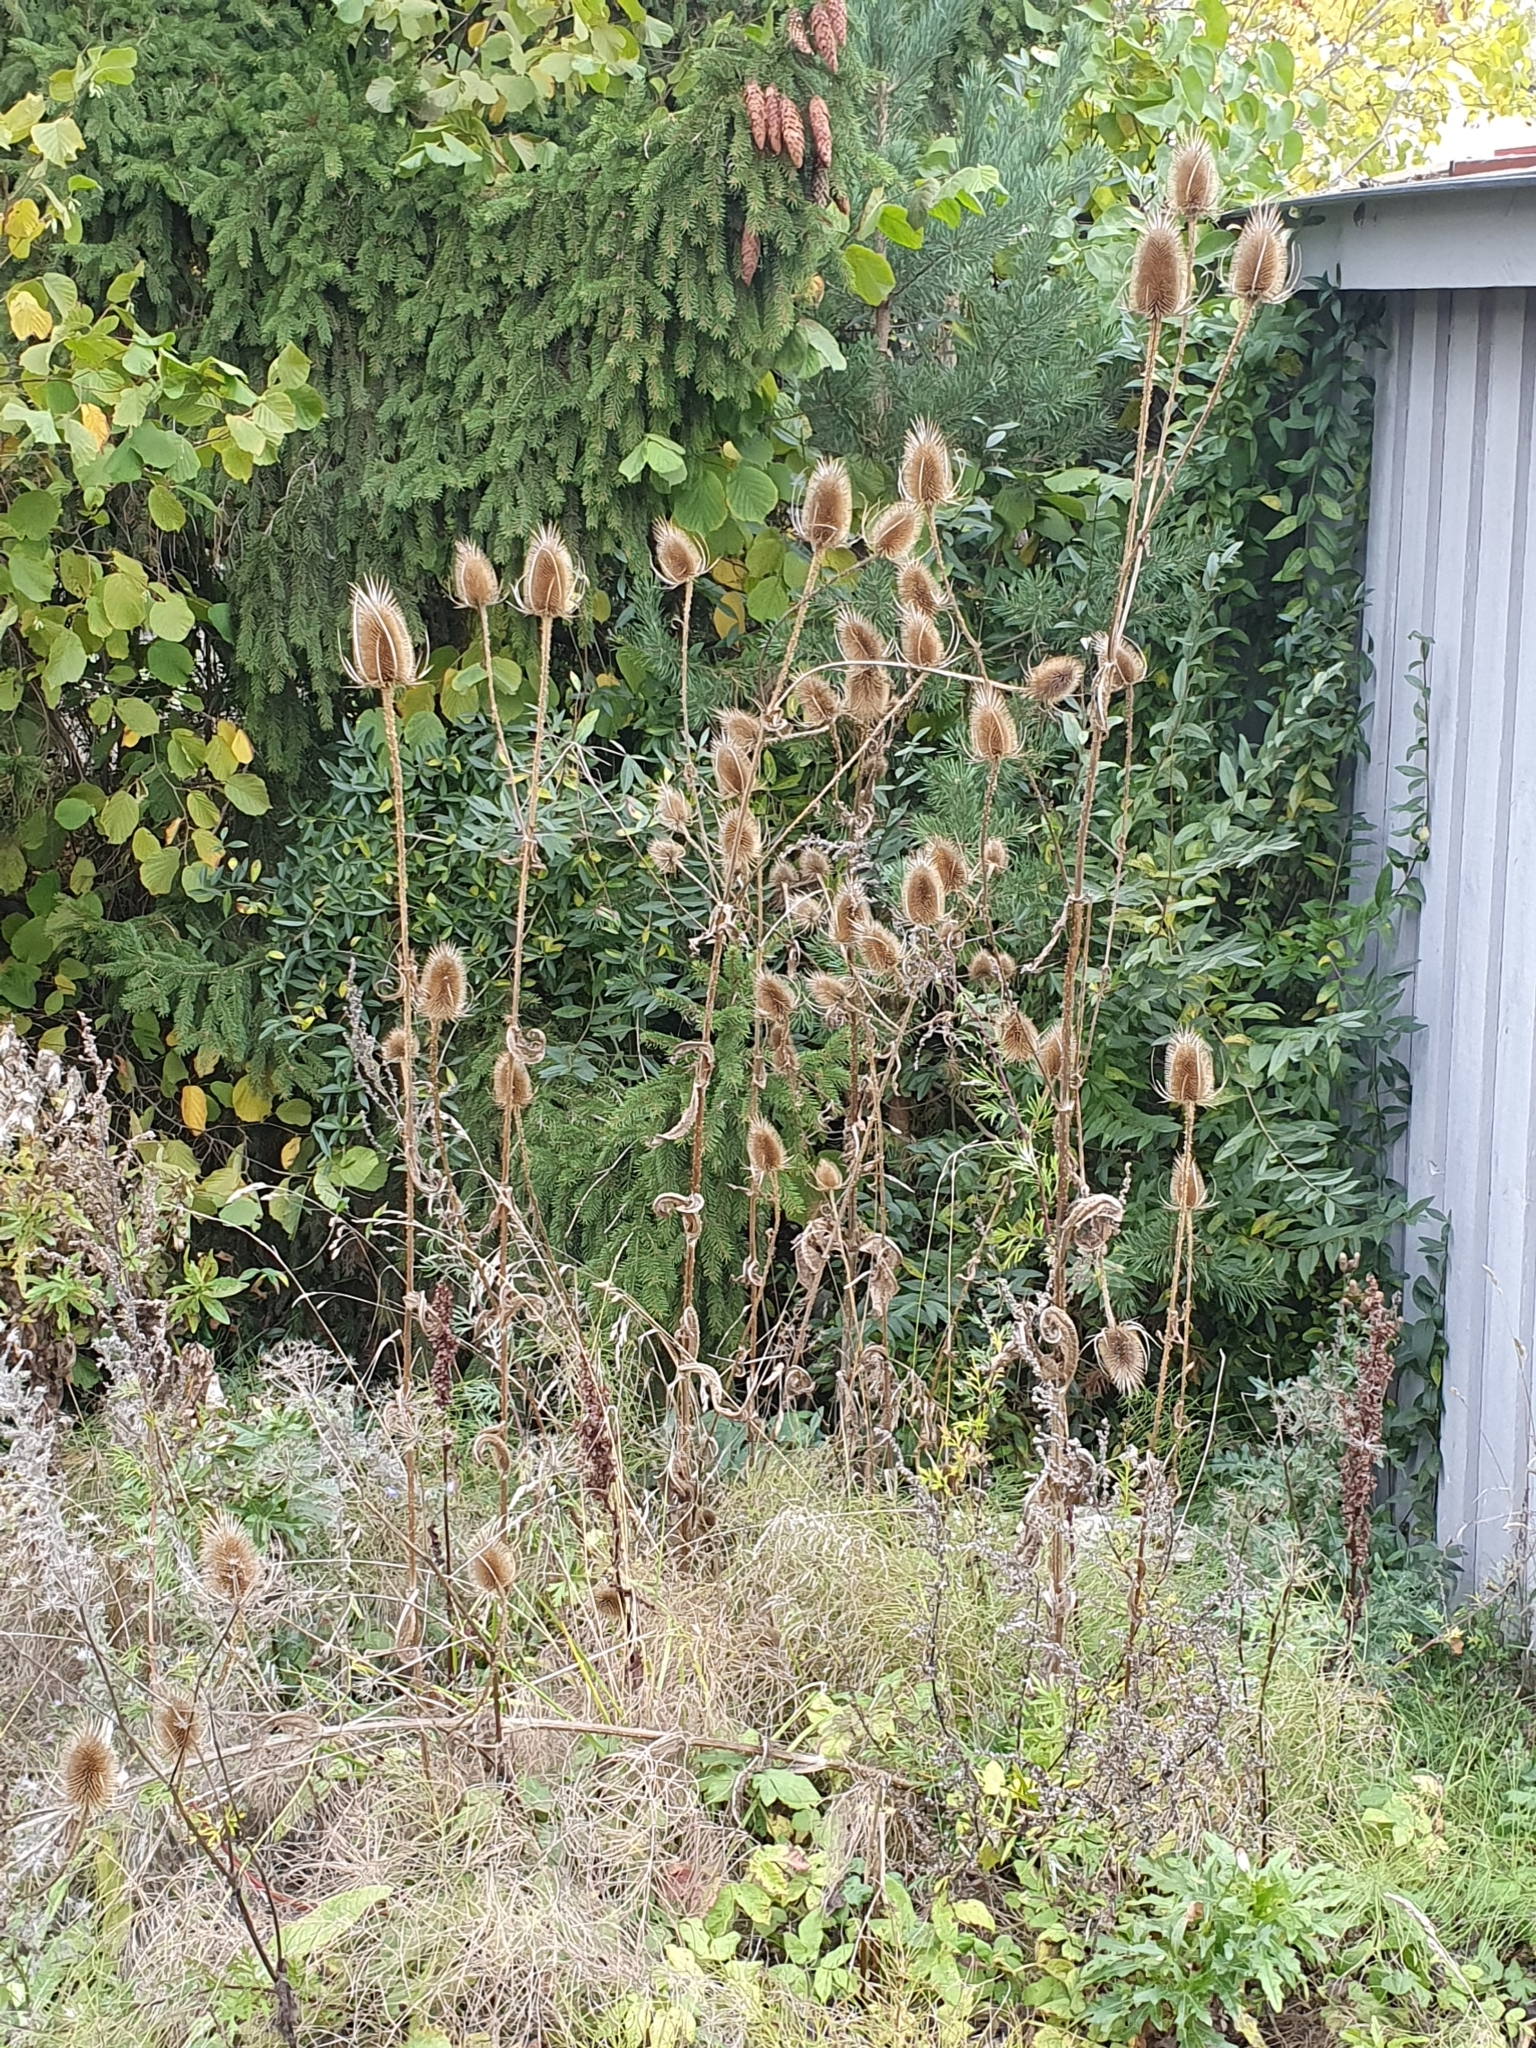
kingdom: Plantae
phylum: Tracheophyta
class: Magnoliopsida
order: Dipsacales
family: Caprifoliaceae
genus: Dipsacus
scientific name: Dipsacus fullonum
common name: Teasel
